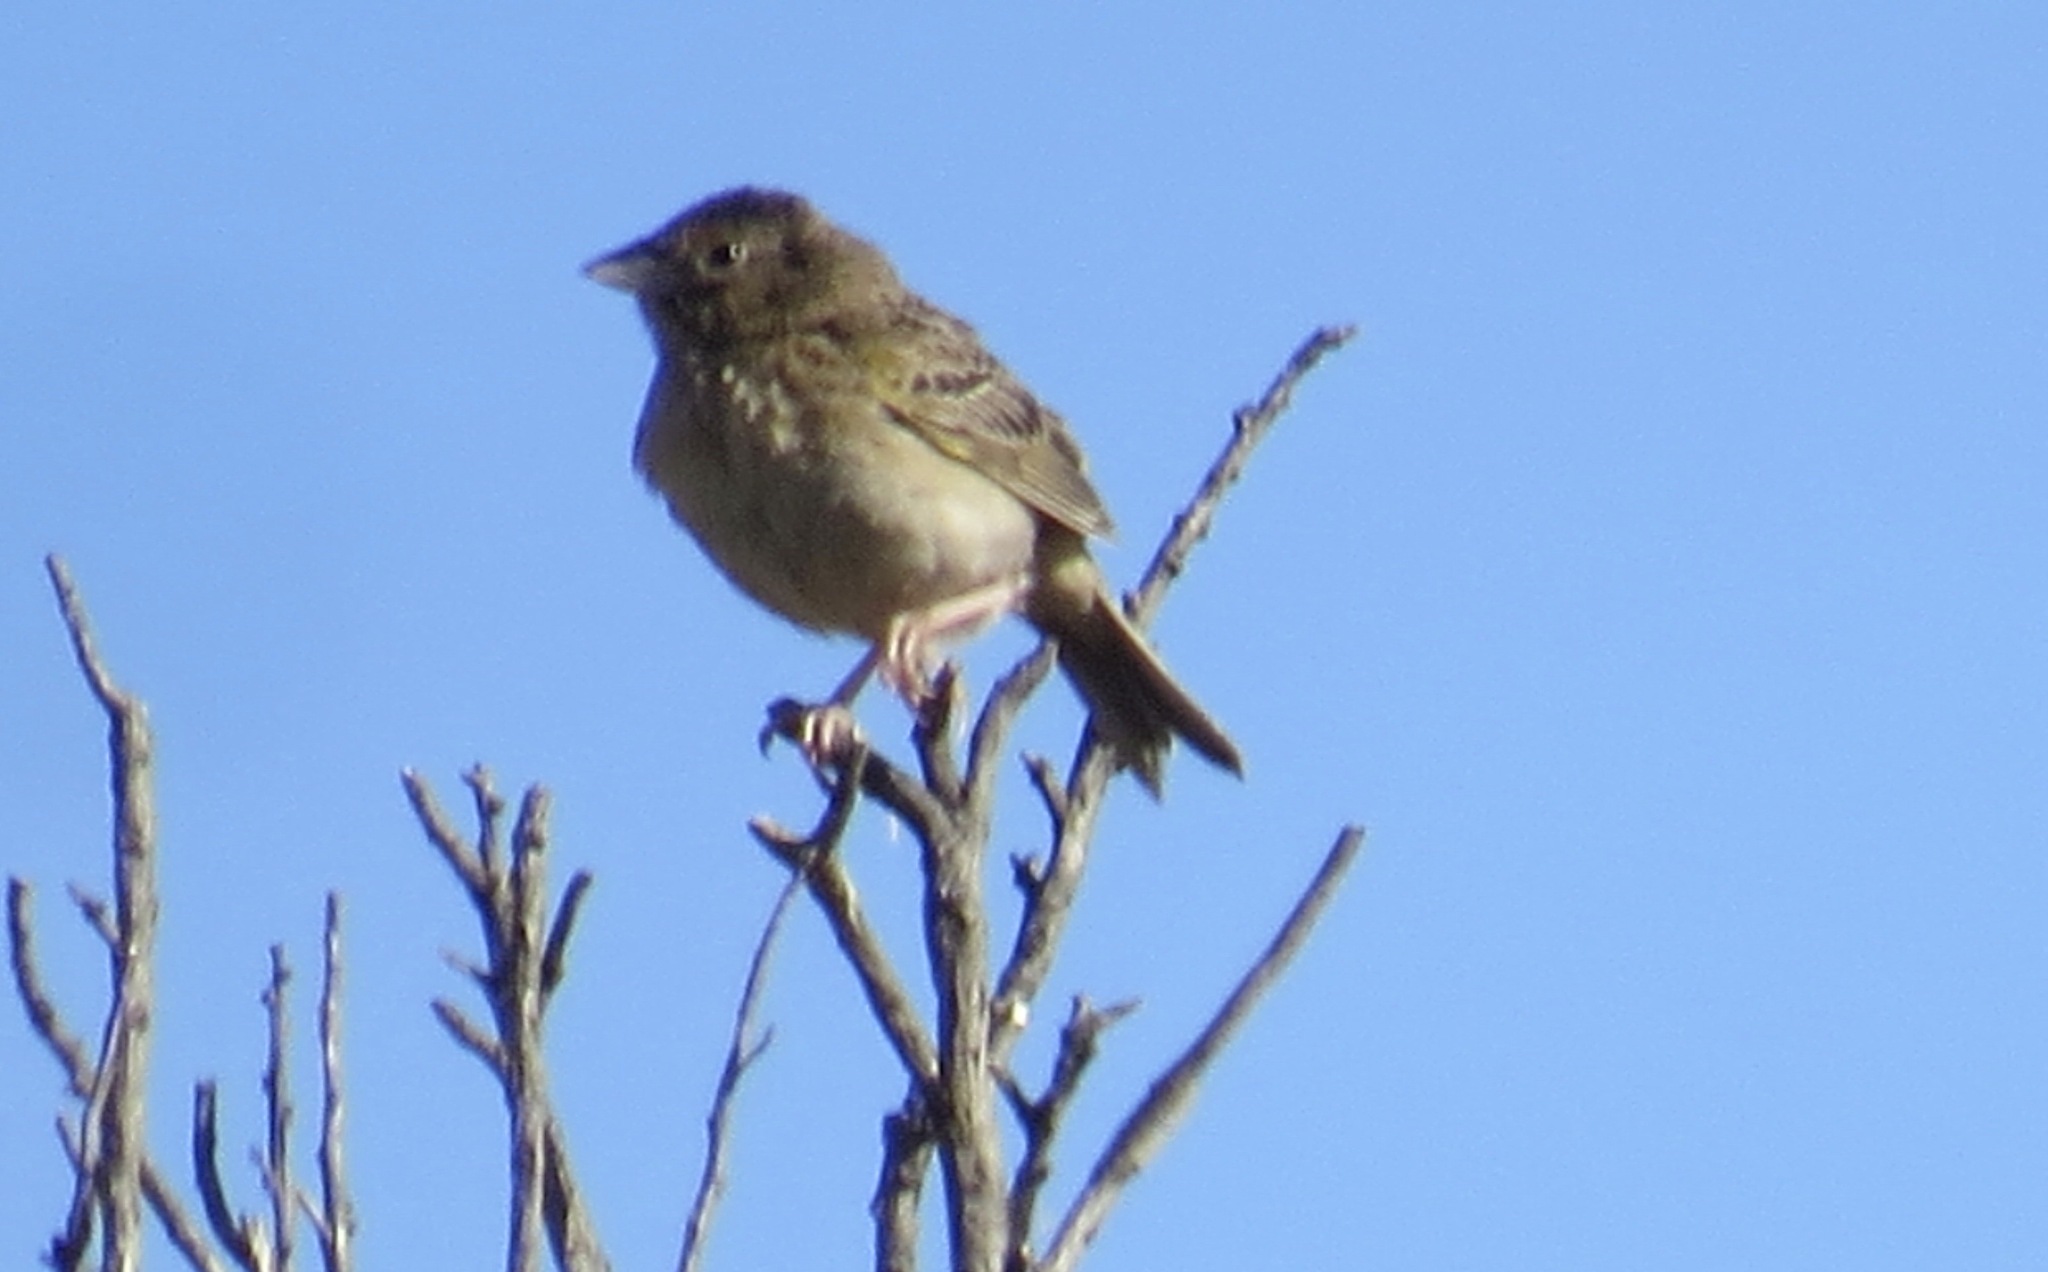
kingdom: Animalia
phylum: Chordata
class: Aves
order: Passeriformes
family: Passerellidae
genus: Ammodramus
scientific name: Ammodramus savannarum
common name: Grasshopper sparrow
